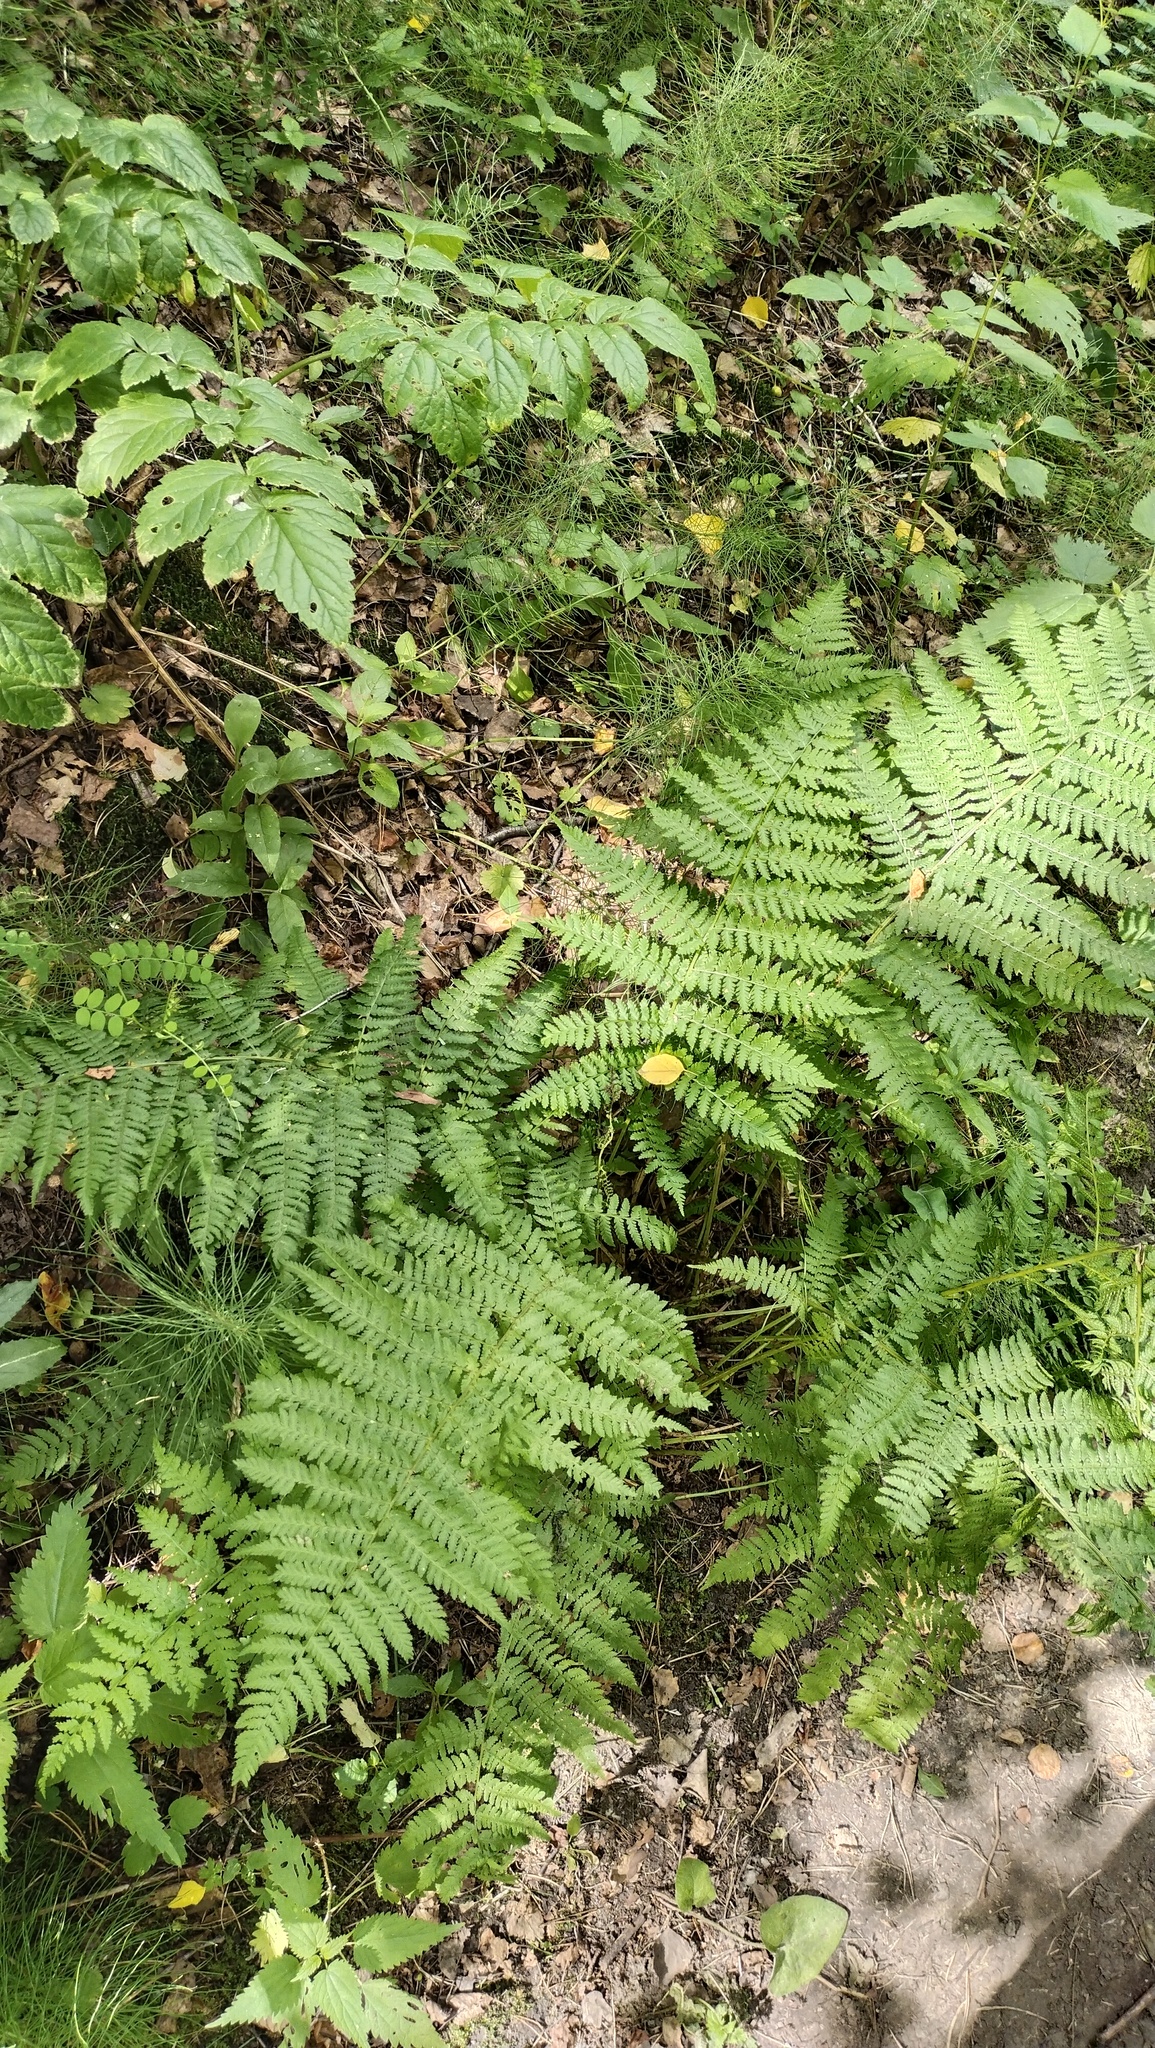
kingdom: Plantae
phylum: Tracheophyta
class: Polypodiopsida
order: Polypodiales
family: Athyriaceae
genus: Athyrium
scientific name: Athyrium filix-femina
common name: Lady fern
